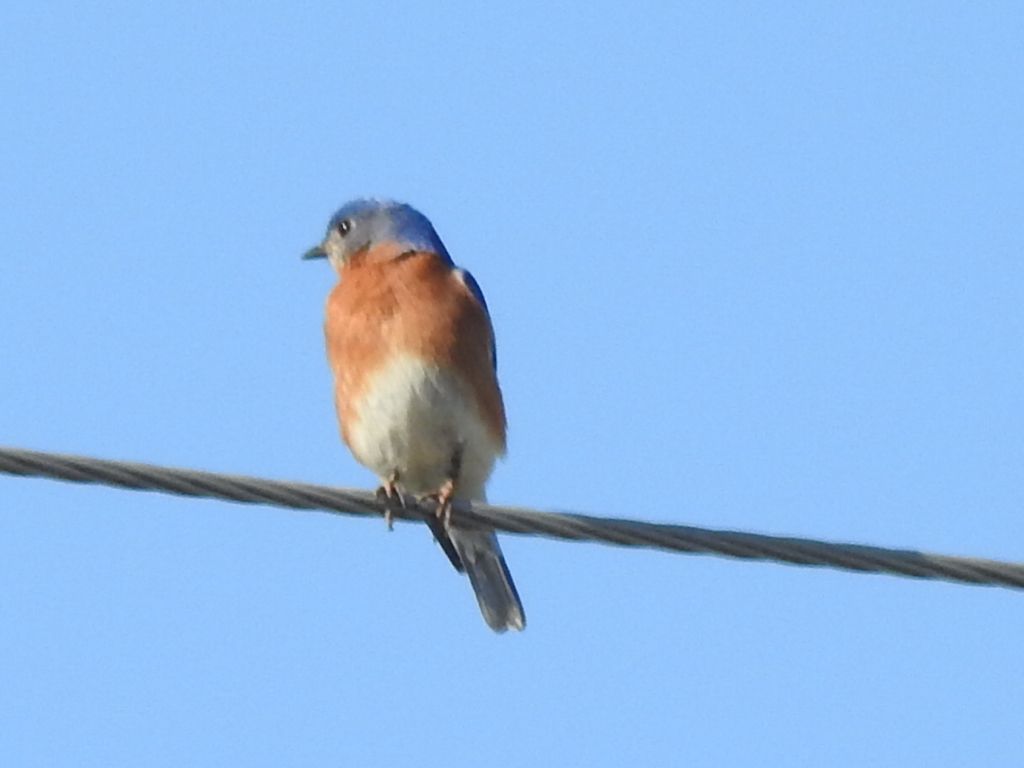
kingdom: Animalia
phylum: Chordata
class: Aves
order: Passeriformes
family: Turdidae
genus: Sialia
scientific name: Sialia sialis
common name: Eastern bluebird
